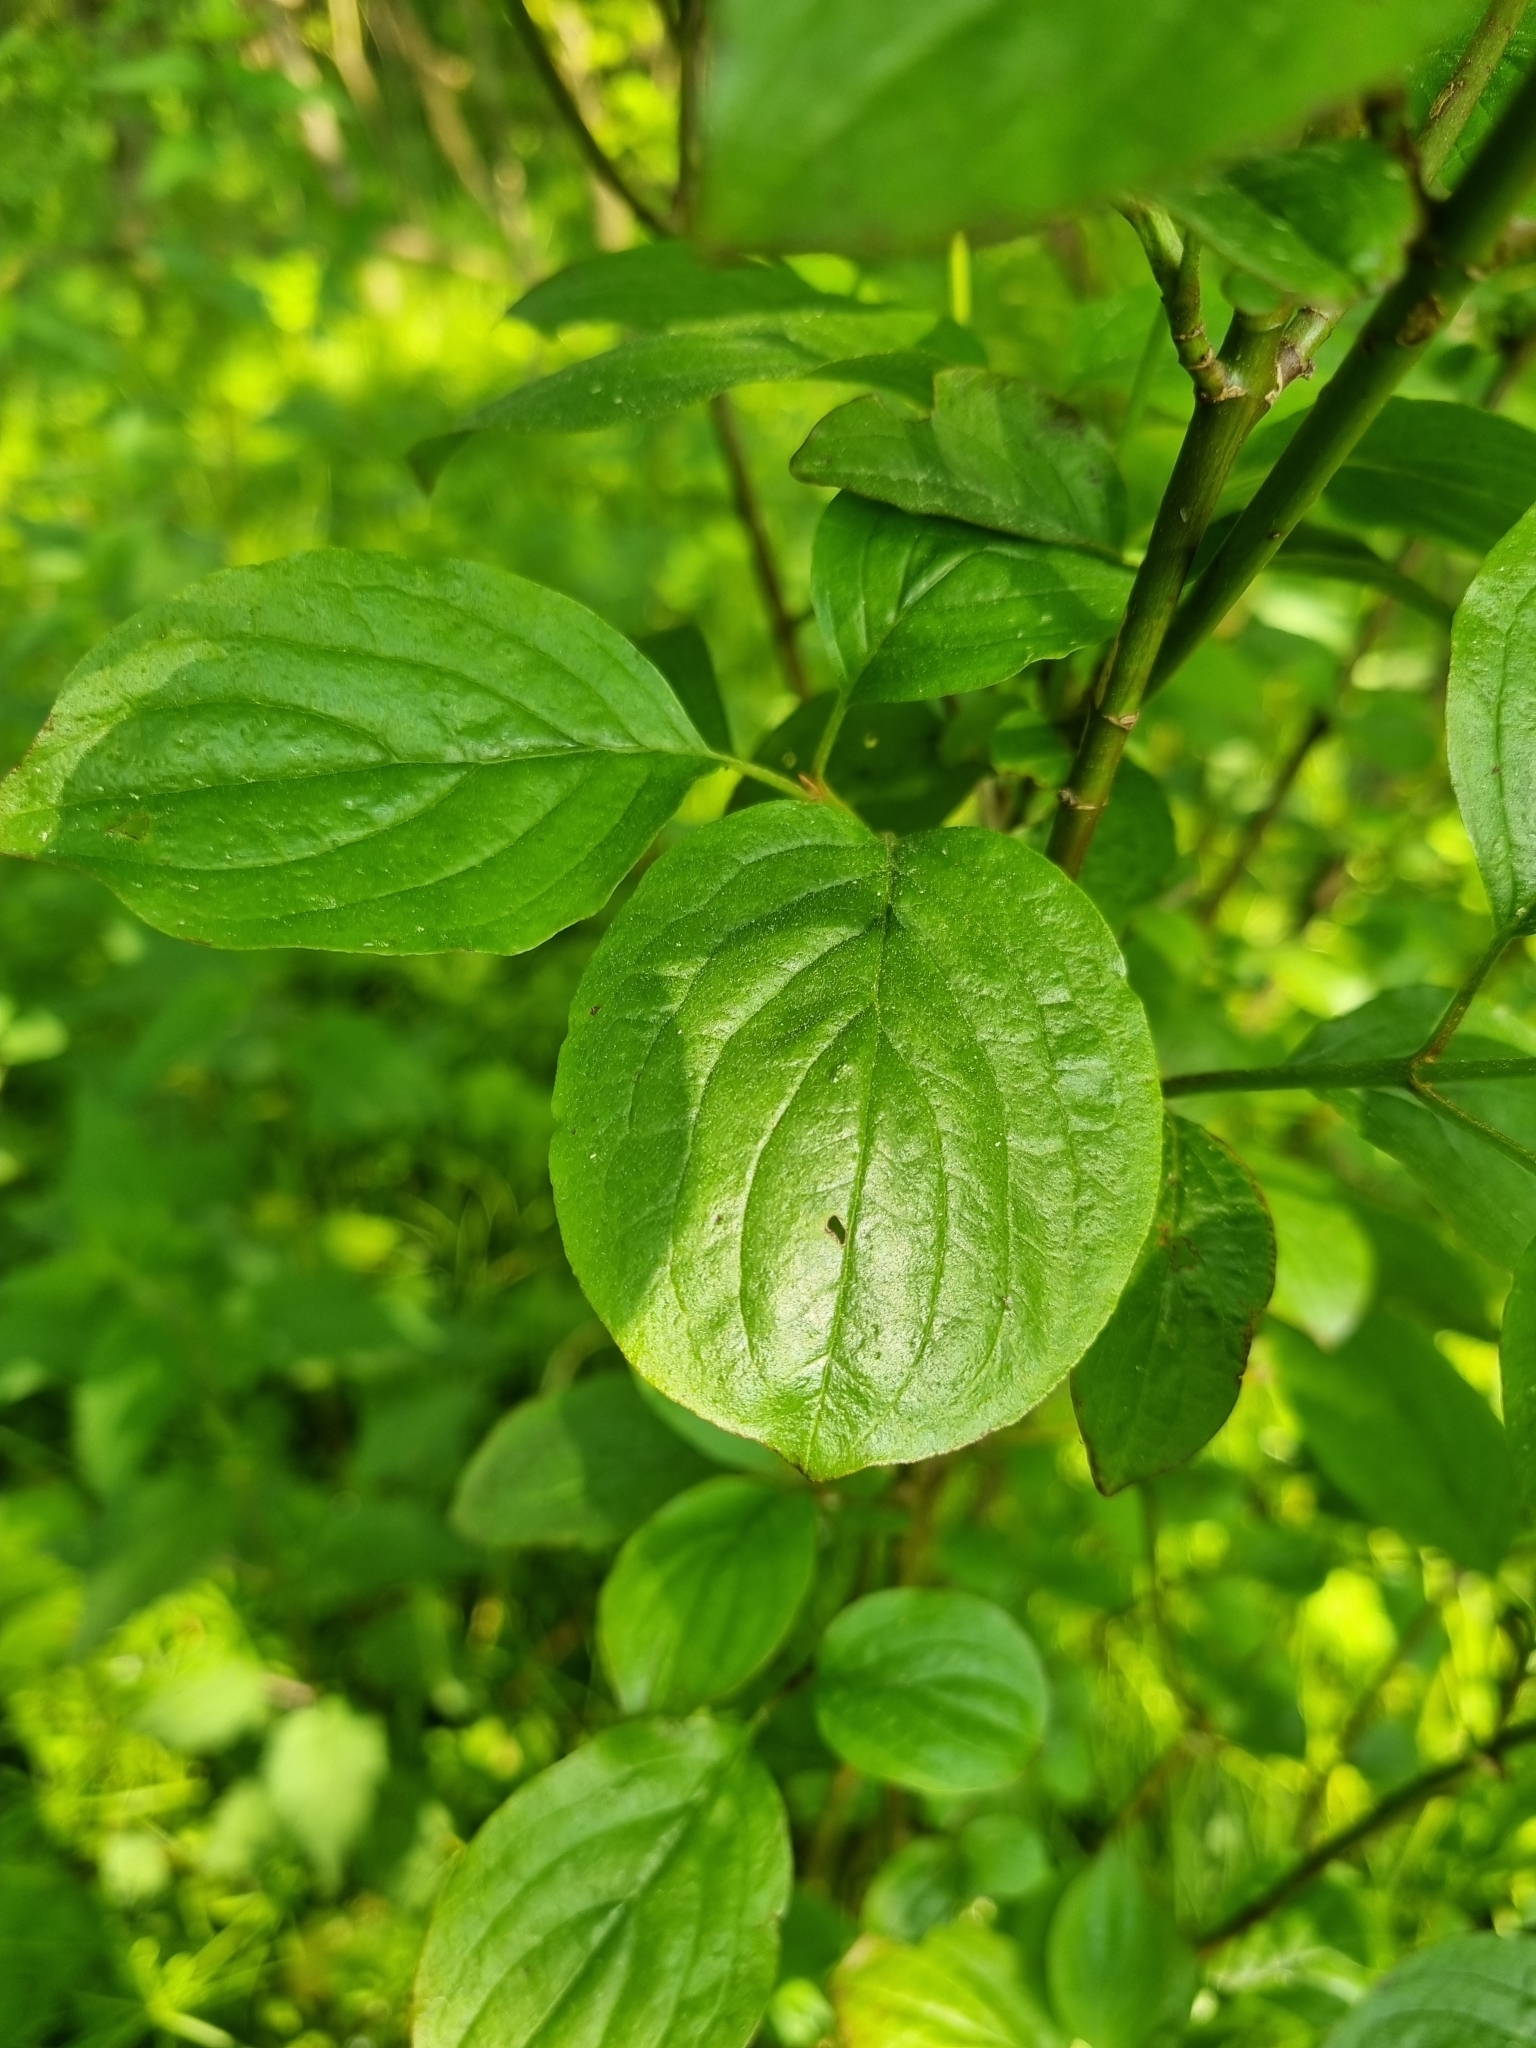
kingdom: Plantae
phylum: Tracheophyta
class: Magnoliopsida
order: Cornales
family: Cornaceae
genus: Cornus
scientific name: Cornus sanguinea
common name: Dogwood
